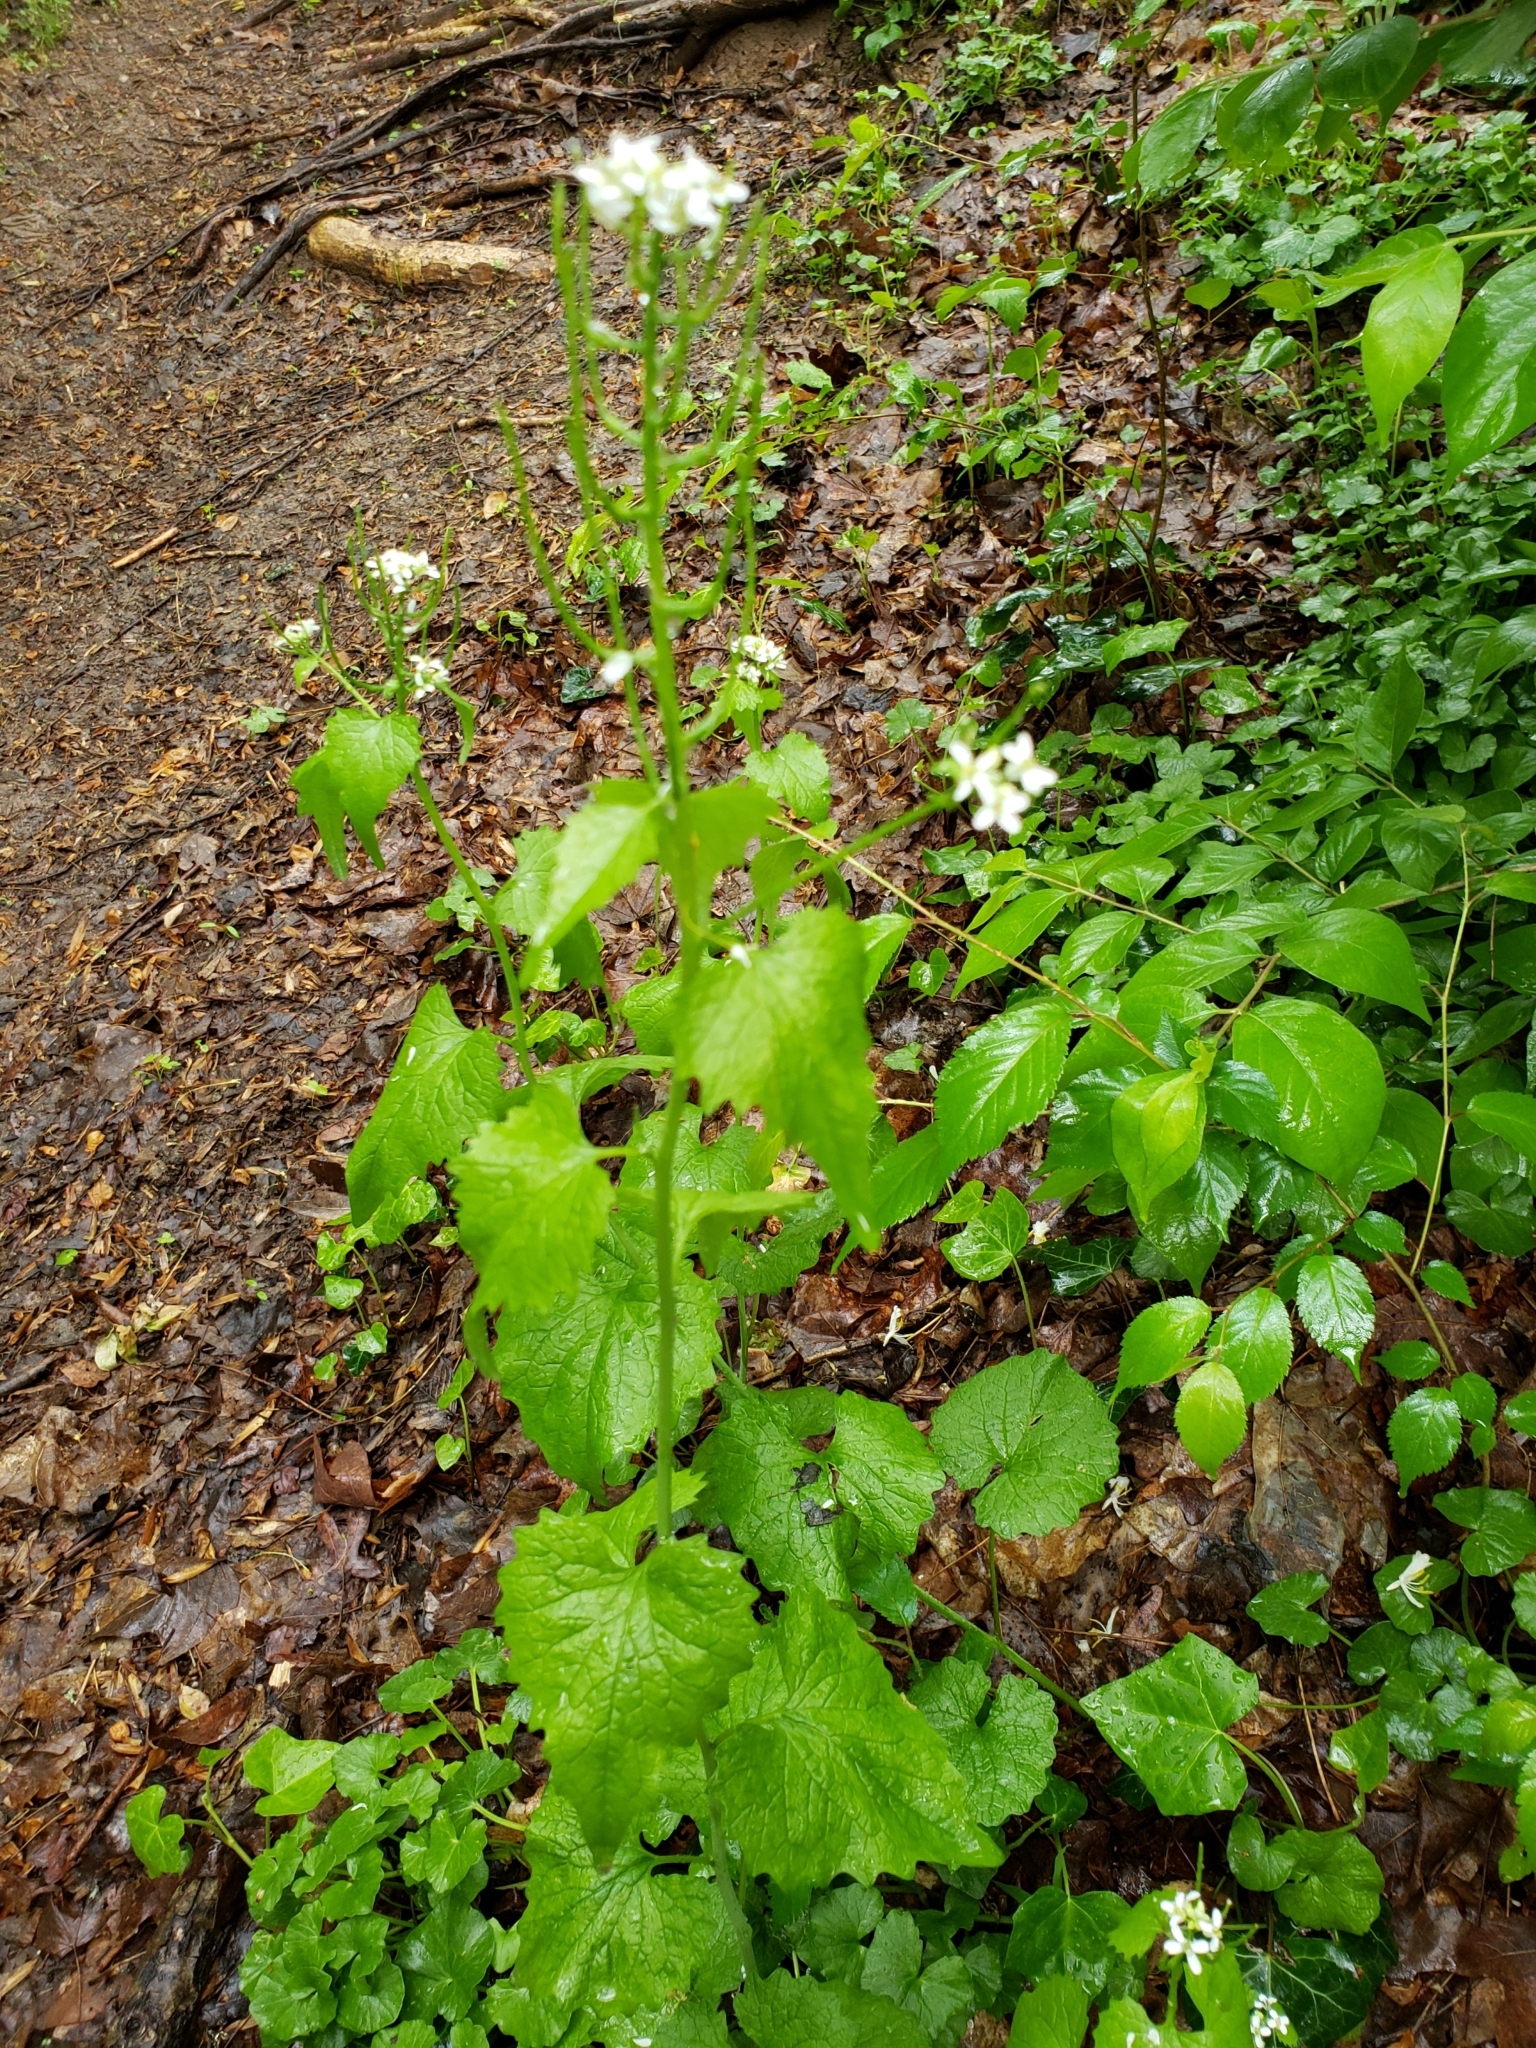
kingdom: Plantae
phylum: Tracheophyta
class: Magnoliopsida
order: Brassicales
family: Brassicaceae
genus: Alliaria
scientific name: Alliaria petiolata
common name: Garlic mustard
